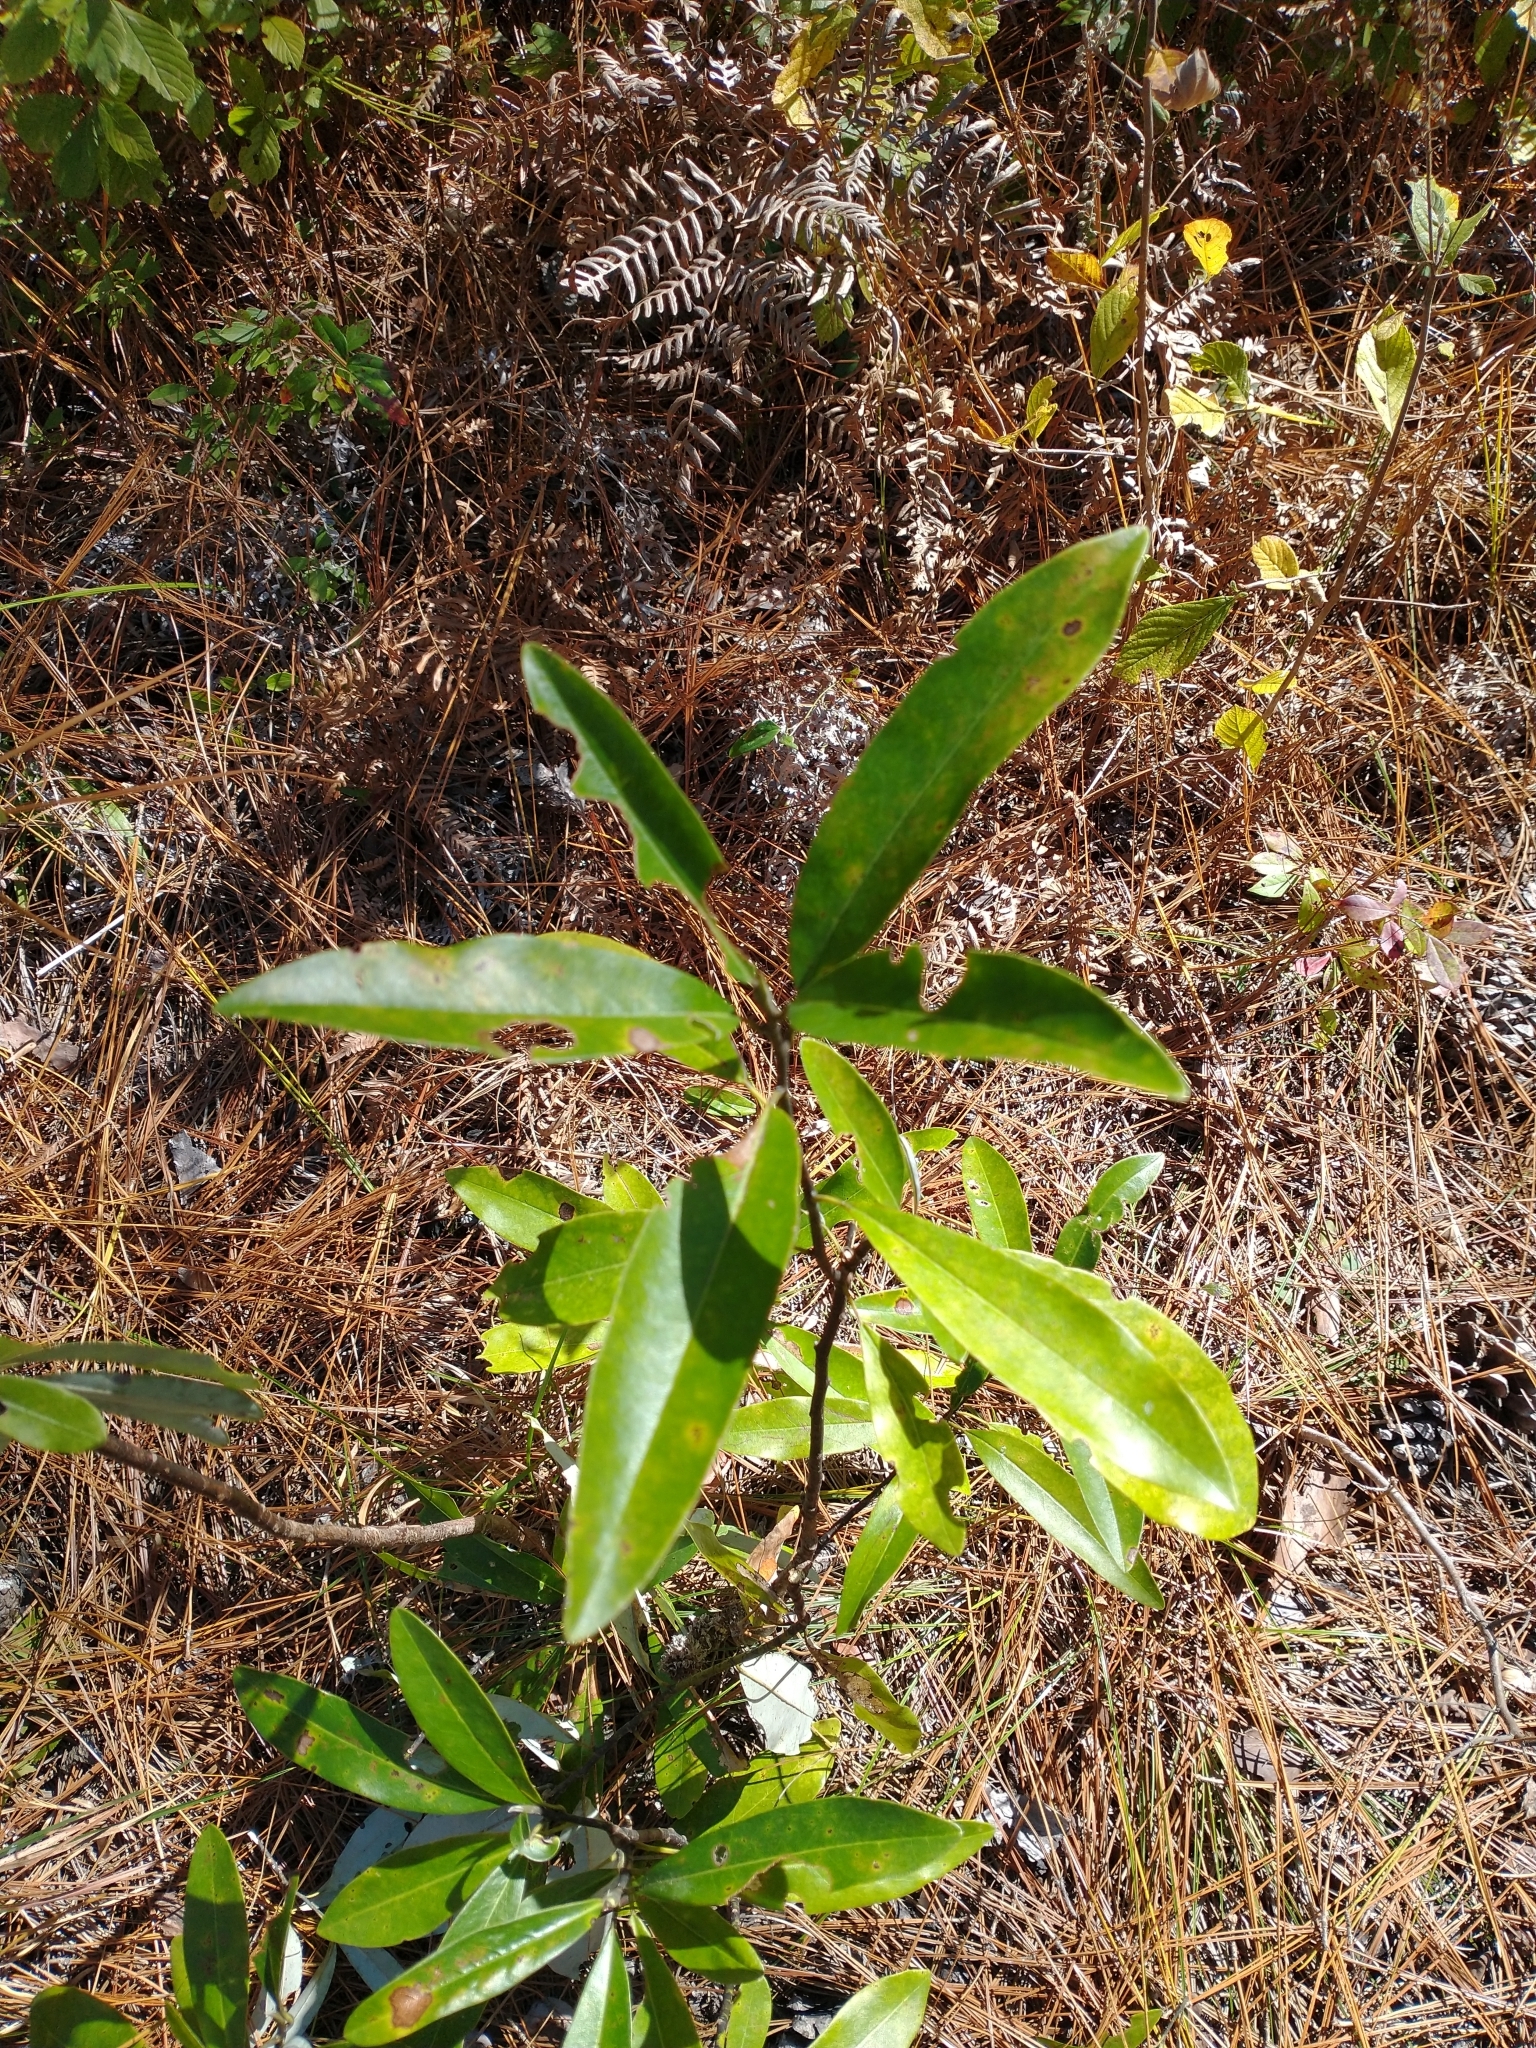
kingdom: Plantae
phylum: Tracheophyta
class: Magnoliopsida
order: Magnoliales
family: Magnoliaceae
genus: Magnolia
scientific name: Magnolia virginiana
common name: Swamp bay
